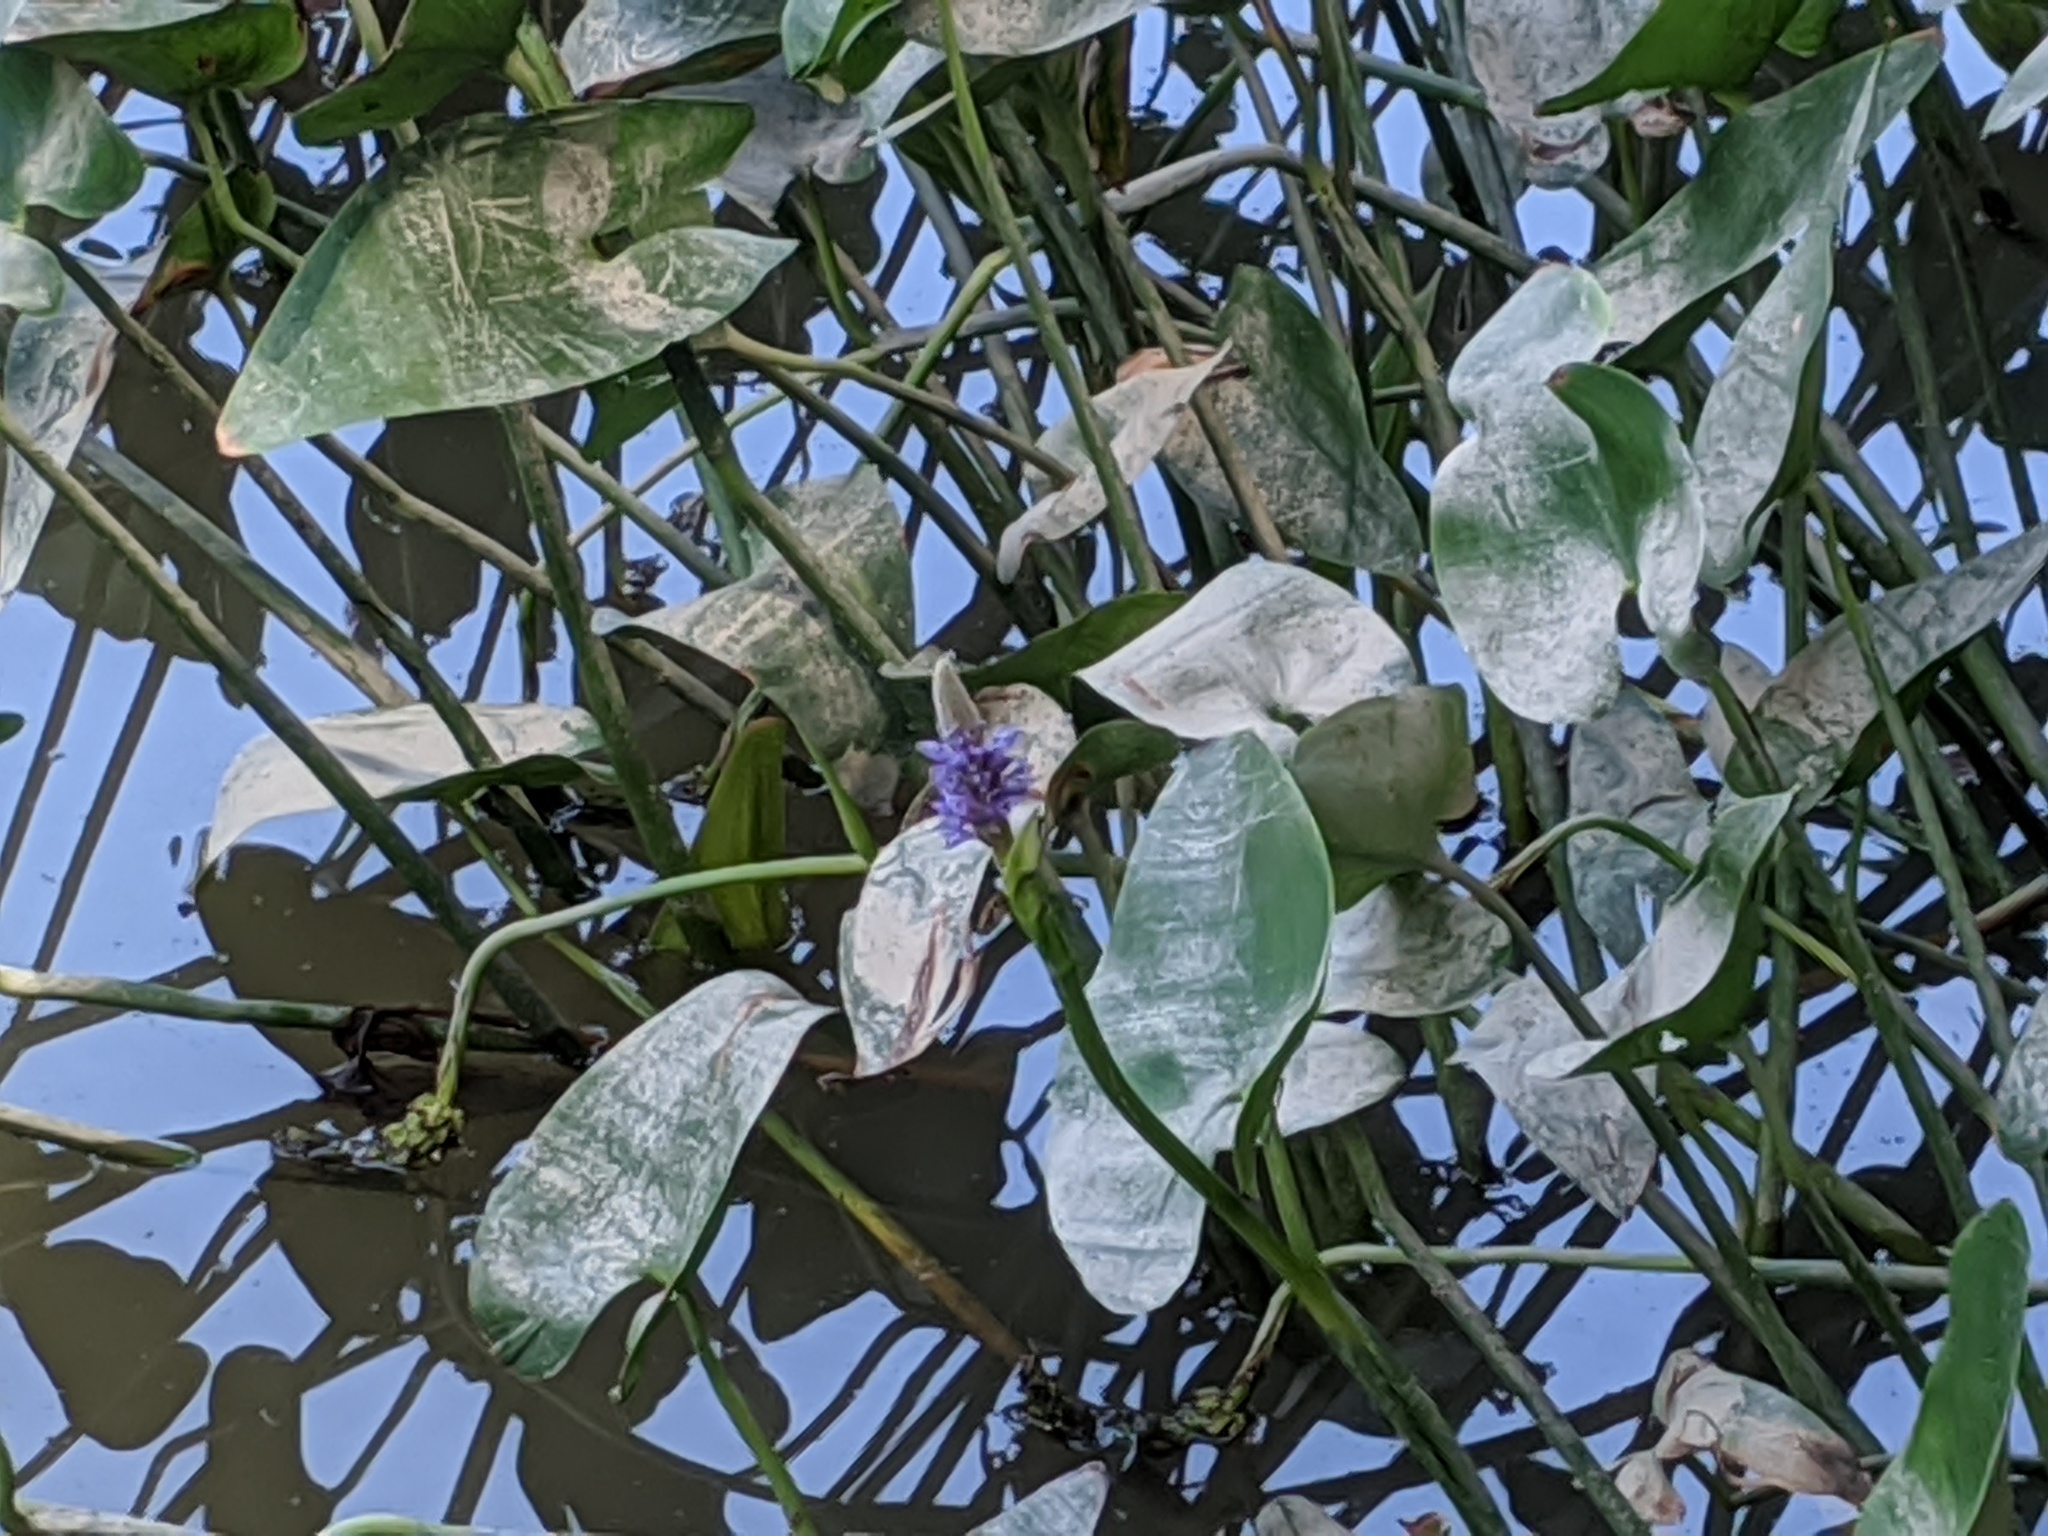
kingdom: Plantae
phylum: Tracheophyta
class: Liliopsida
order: Commelinales
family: Pontederiaceae
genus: Pontederia
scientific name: Pontederia cordata
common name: Pickerelweed
